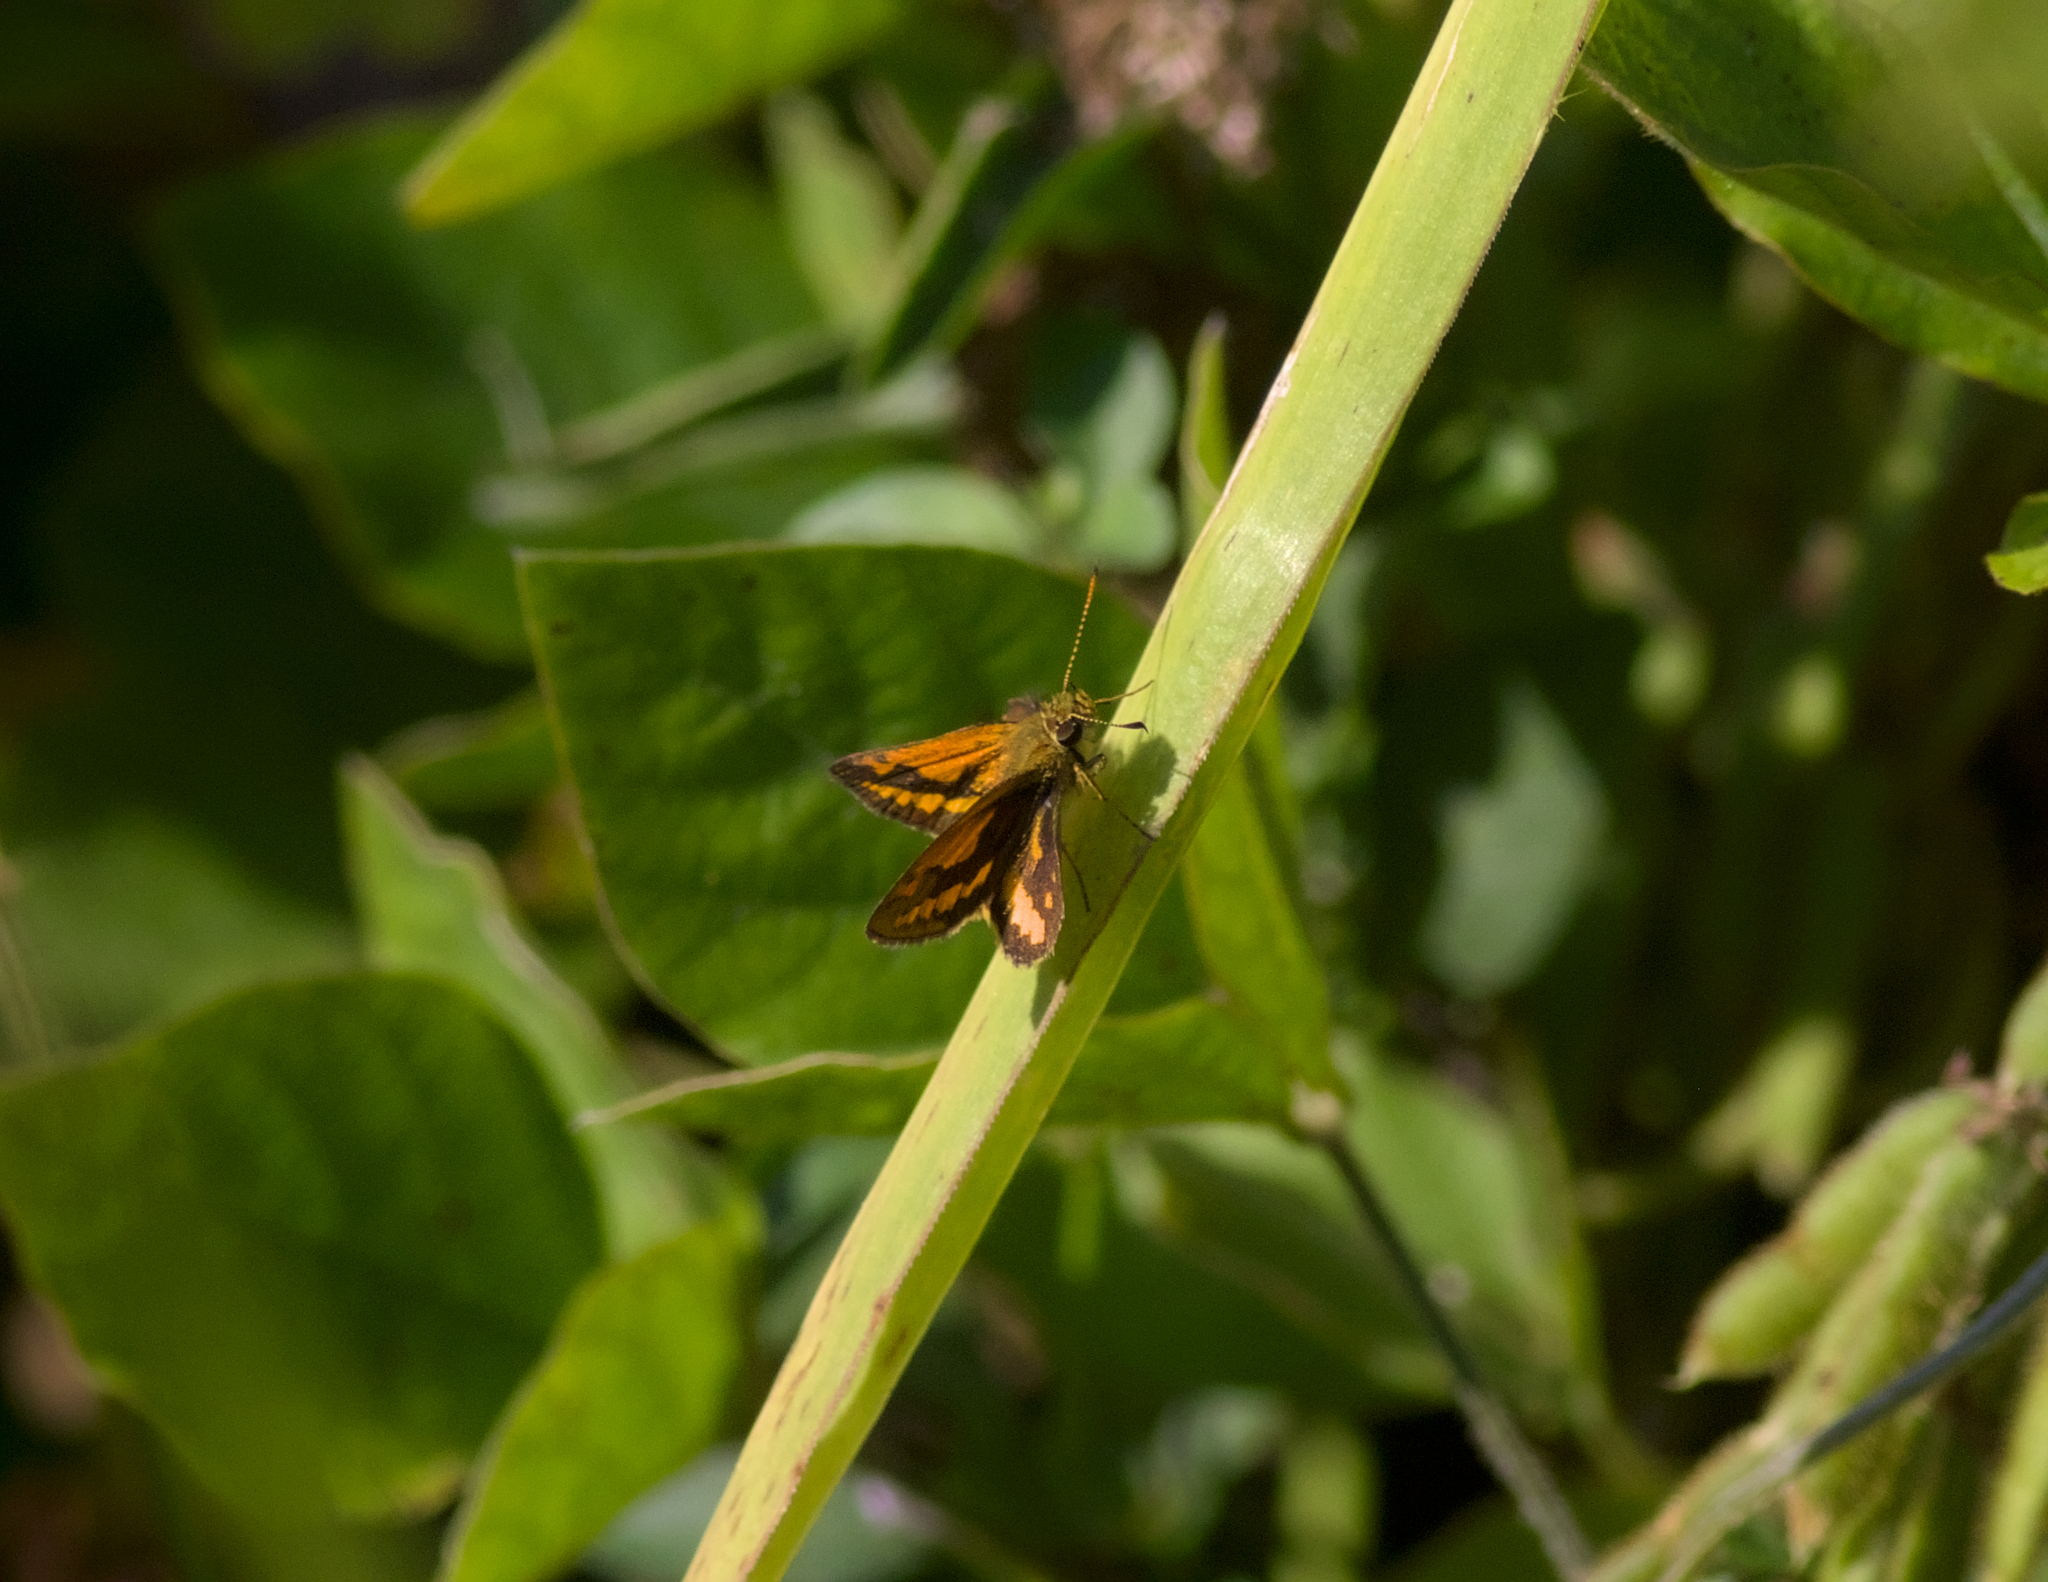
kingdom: Animalia
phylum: Arthropoda
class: Insecta
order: Lepidoptera
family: Hesperiidae
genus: Suniana
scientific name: Suniana sunias
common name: Wide-brand grass-dart
